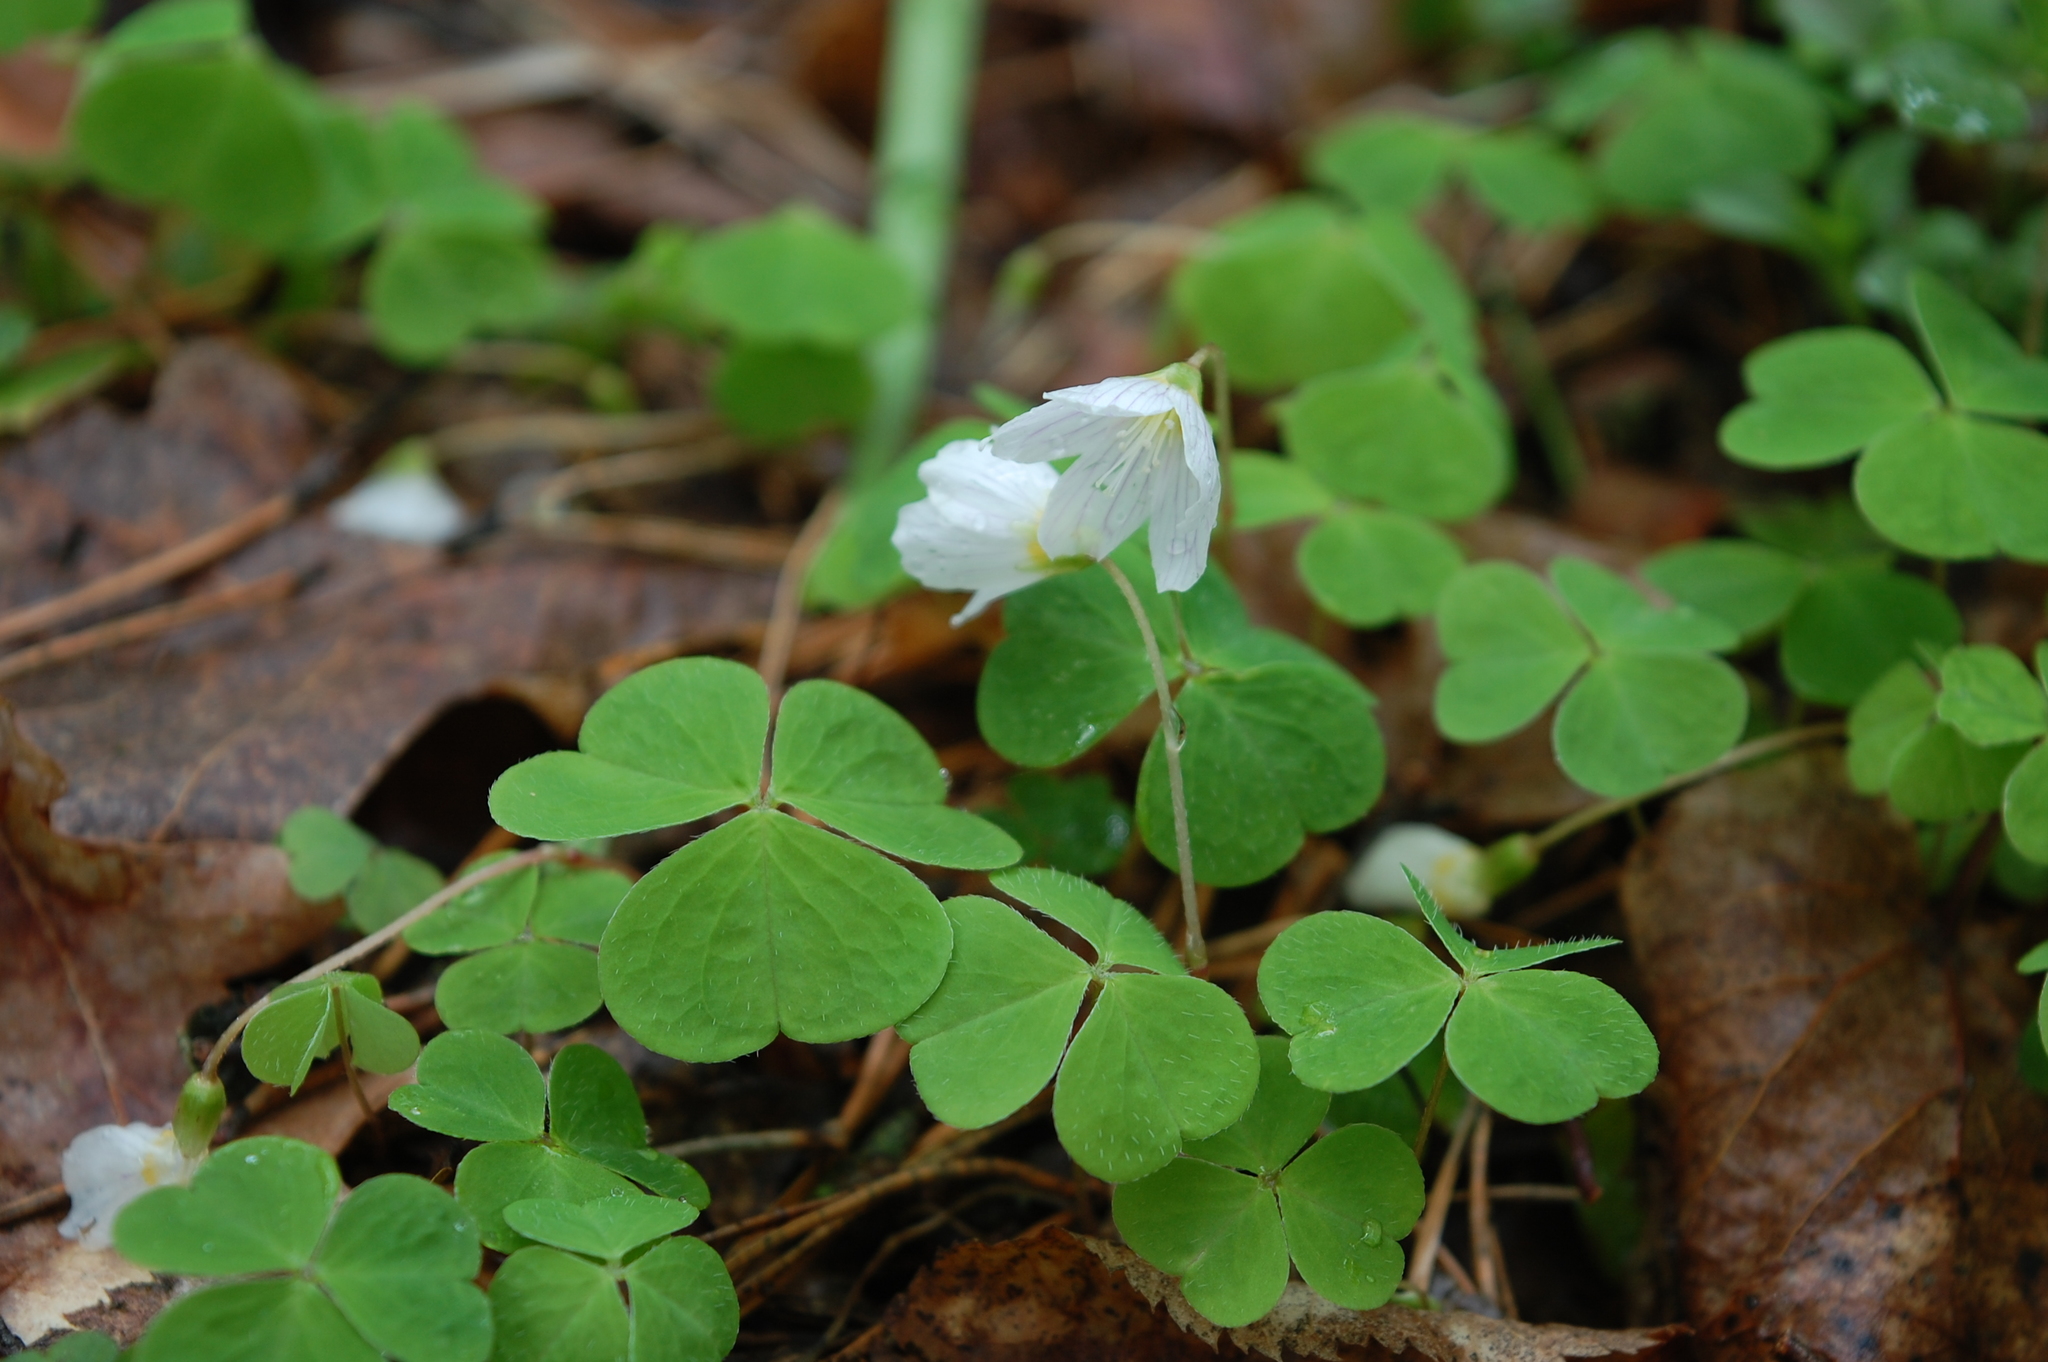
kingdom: Plantae
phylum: Tracheophyta
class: Magnoliopsida
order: Oxalidales
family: Oxalidaceae
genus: Oxalis
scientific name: Oxalis acetosella
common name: Wood-sorrel
